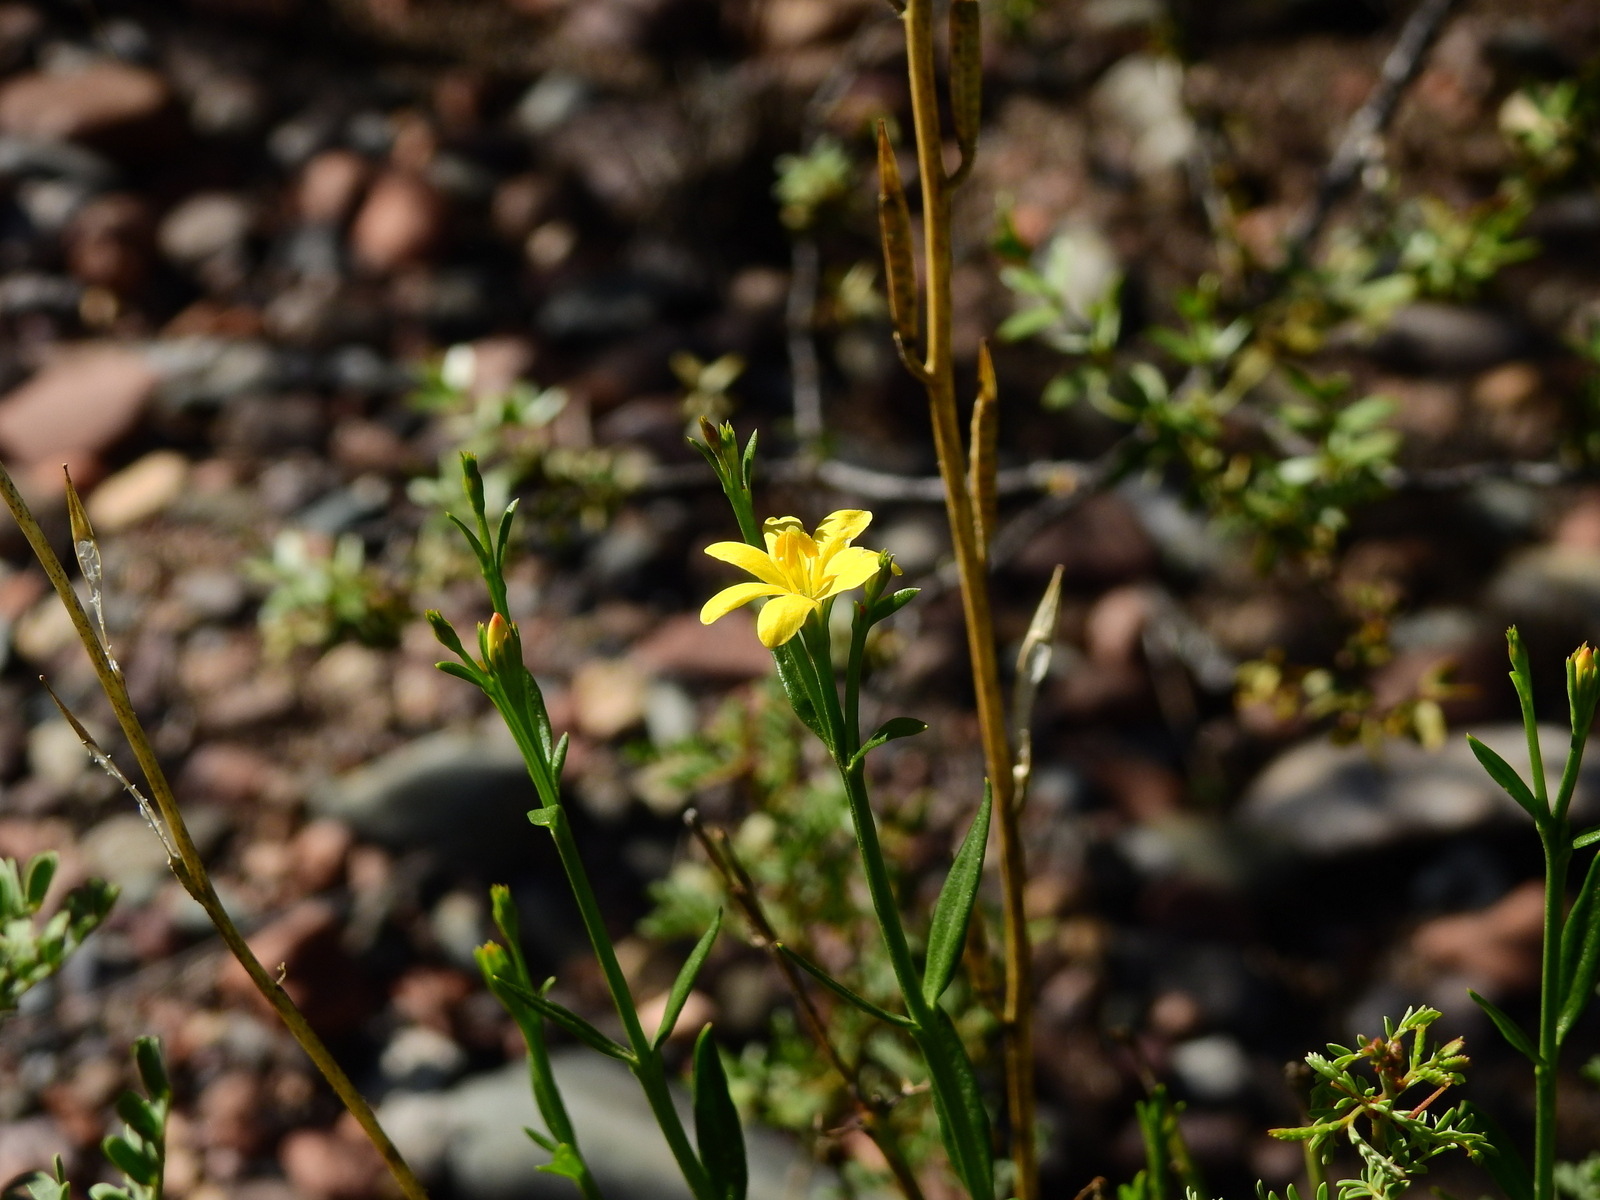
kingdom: Plantae
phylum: Tracheophyta
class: Magnoliopsida
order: Lamiales
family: Oleaceae
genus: Menodora
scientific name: Menodora decemfida
